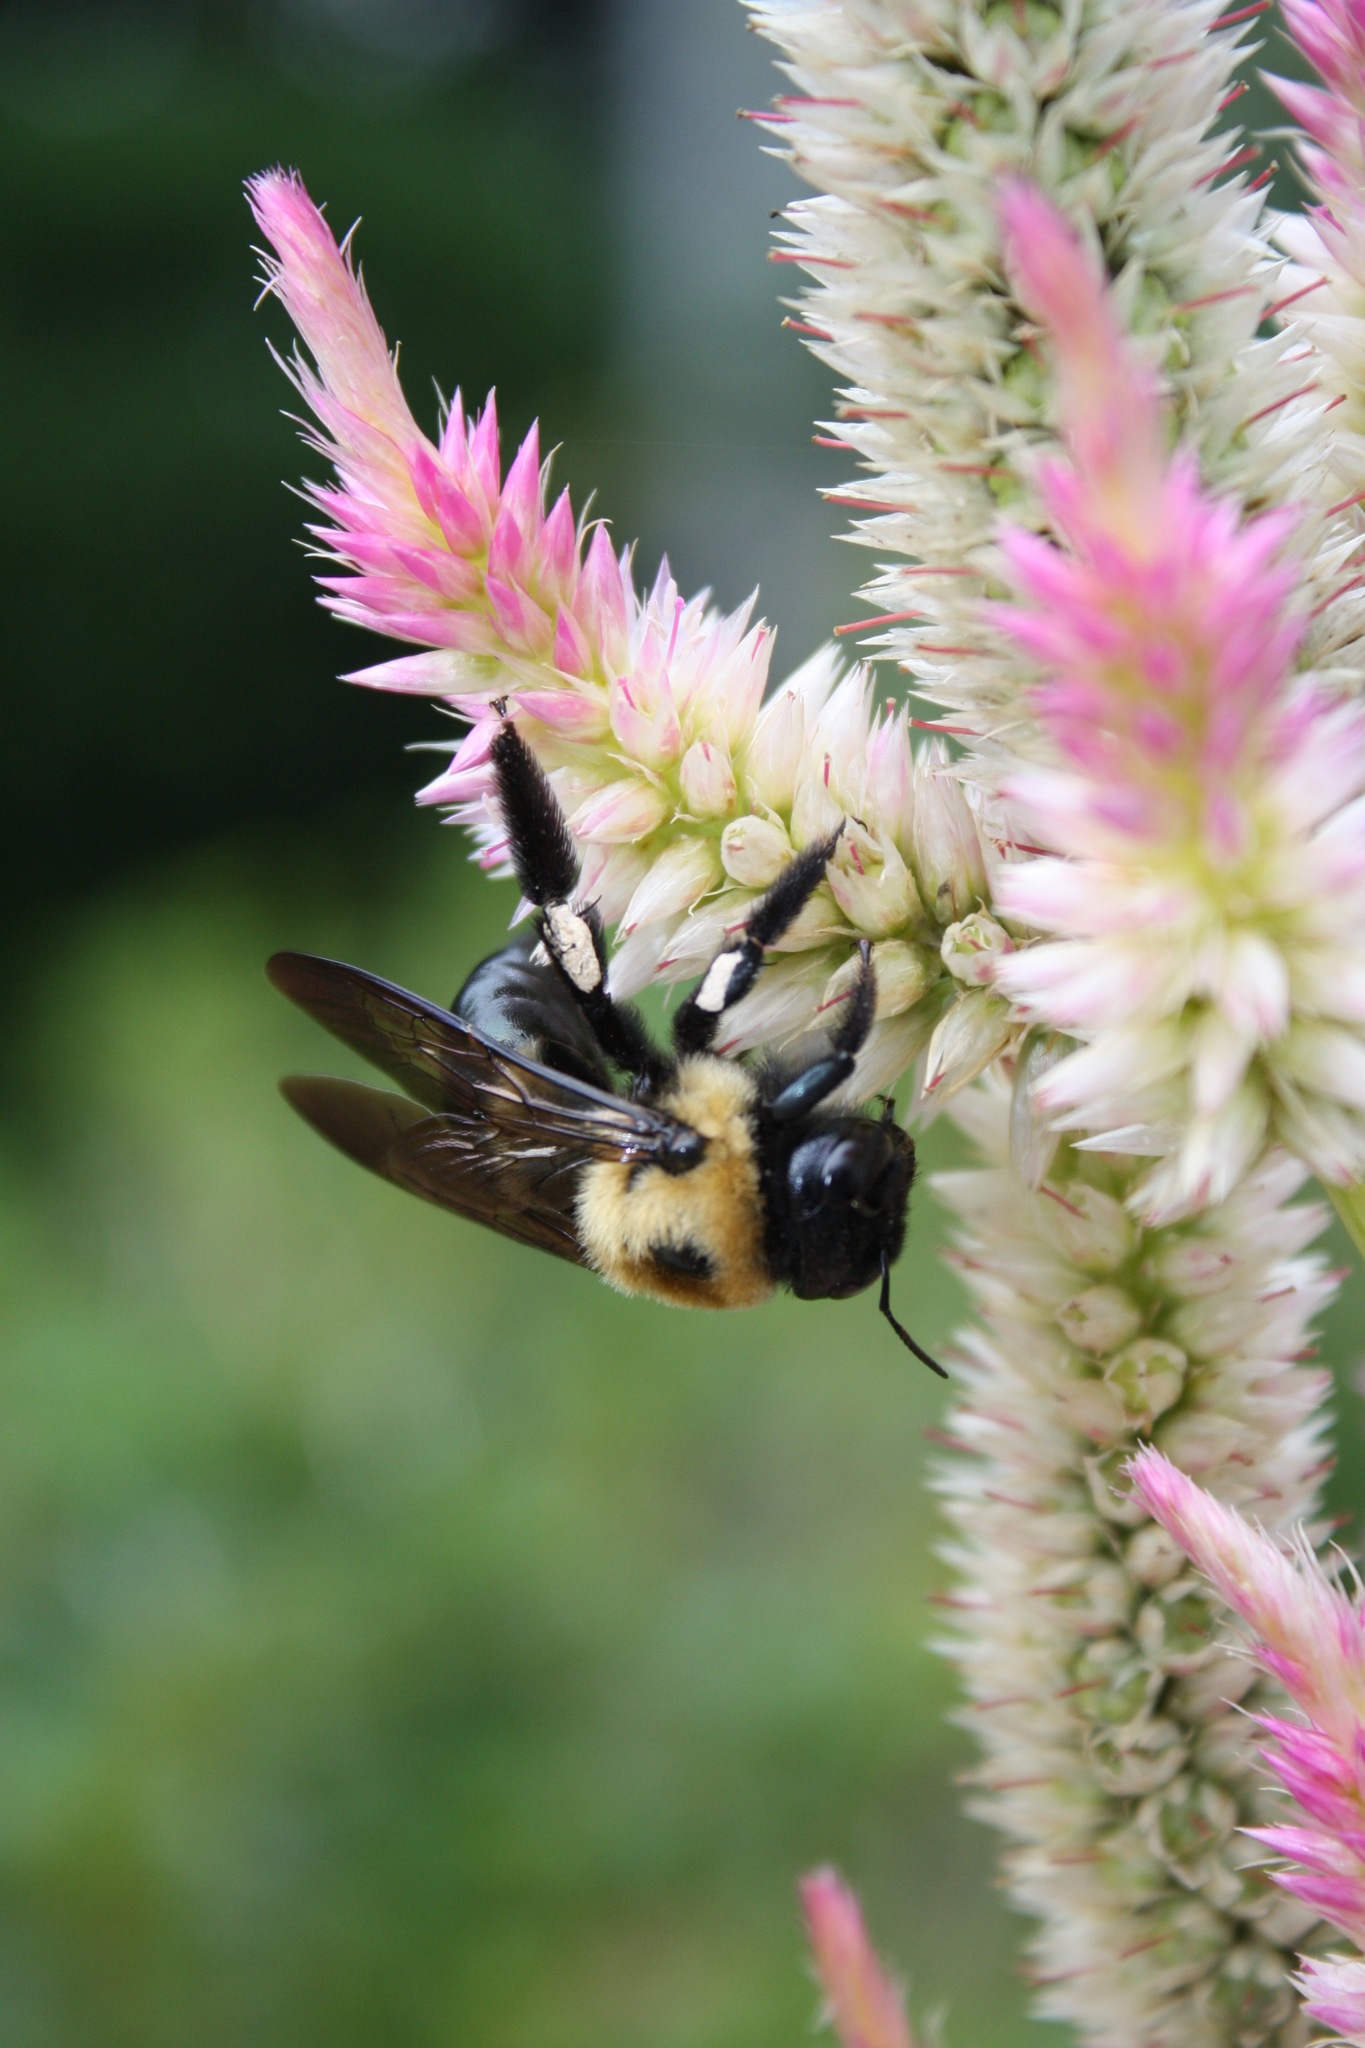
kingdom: Animalia
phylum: Arthropoda
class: Insecta
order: Hymenoptera
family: Apidae
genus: Xylocopa
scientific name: Xylocopa virginica
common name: Carpenter bee
